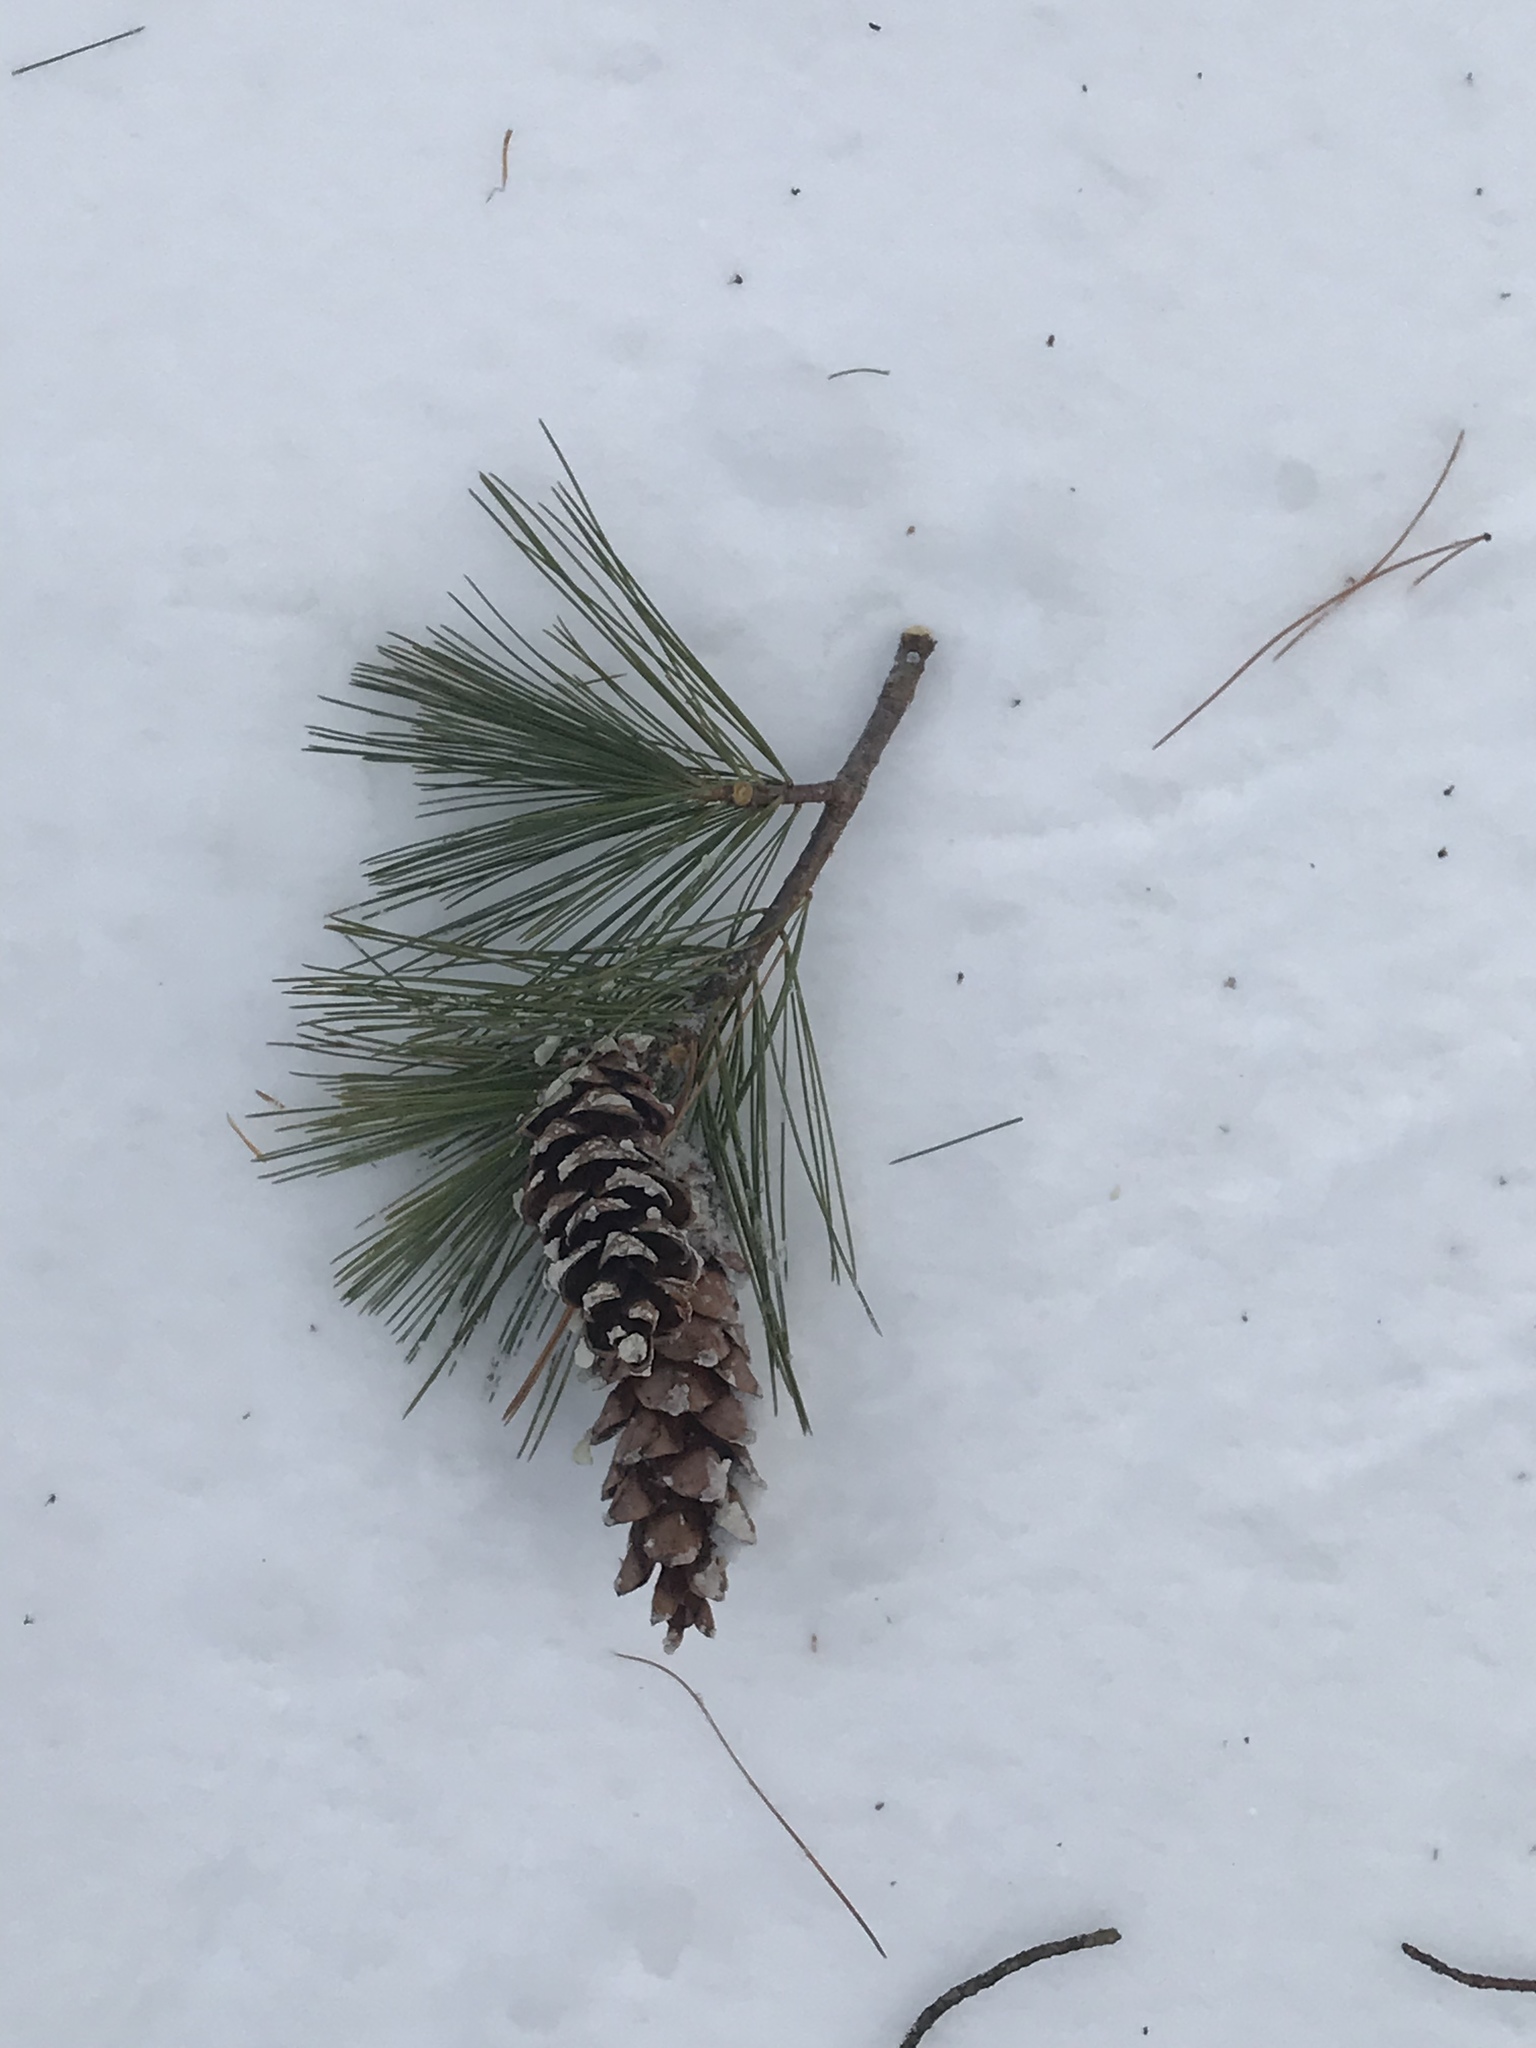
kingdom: Plantae
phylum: Tracheophyta
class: Pinopsida
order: Pinales
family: Pinaceae
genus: Pinus
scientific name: Pinus strobus
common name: Weymouth pine
